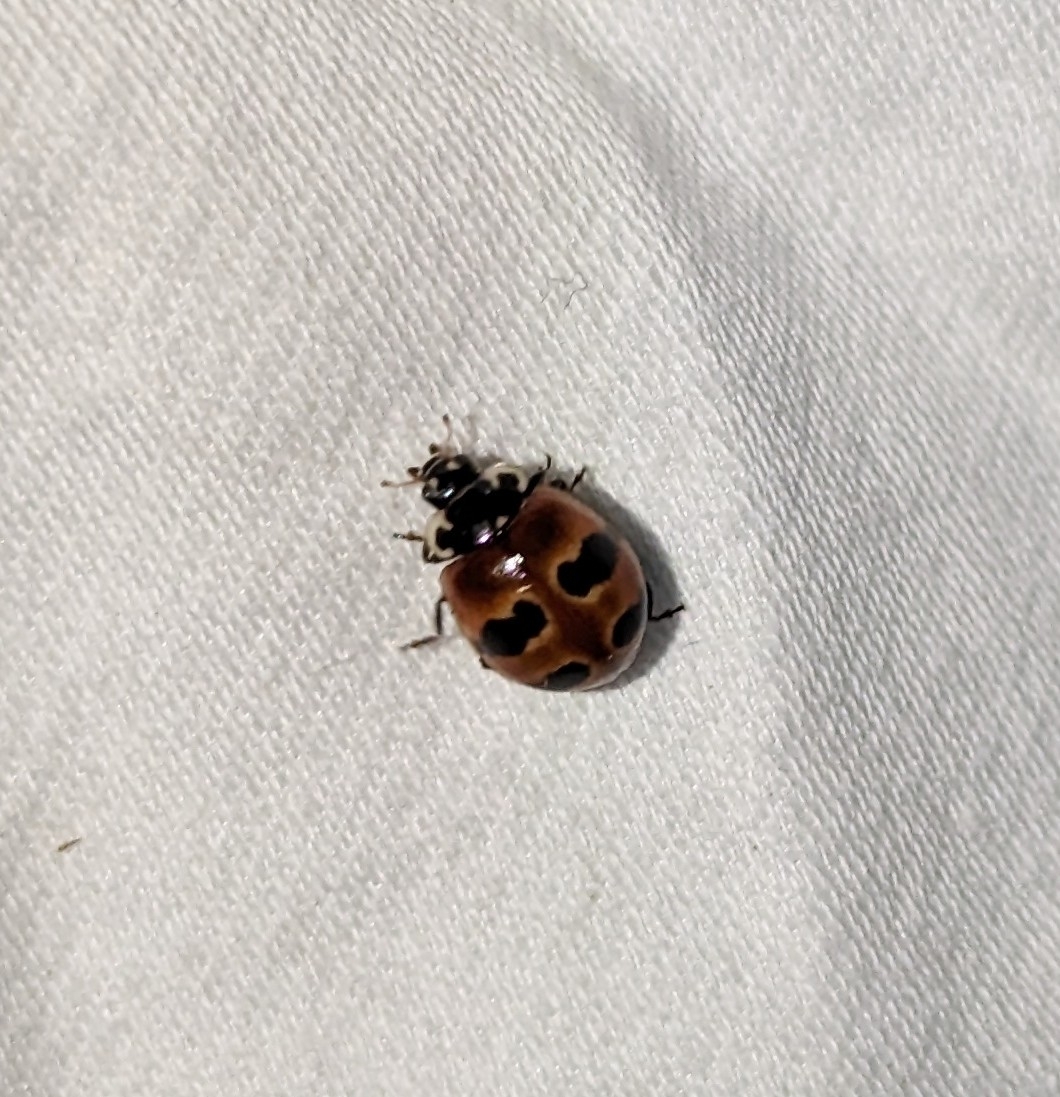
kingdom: Animalia
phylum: Arthropoda
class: Insecta
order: Coleoptera
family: Coccinellidae
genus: Adalia
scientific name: Adalia bipunctata
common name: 2-spot ladybird
